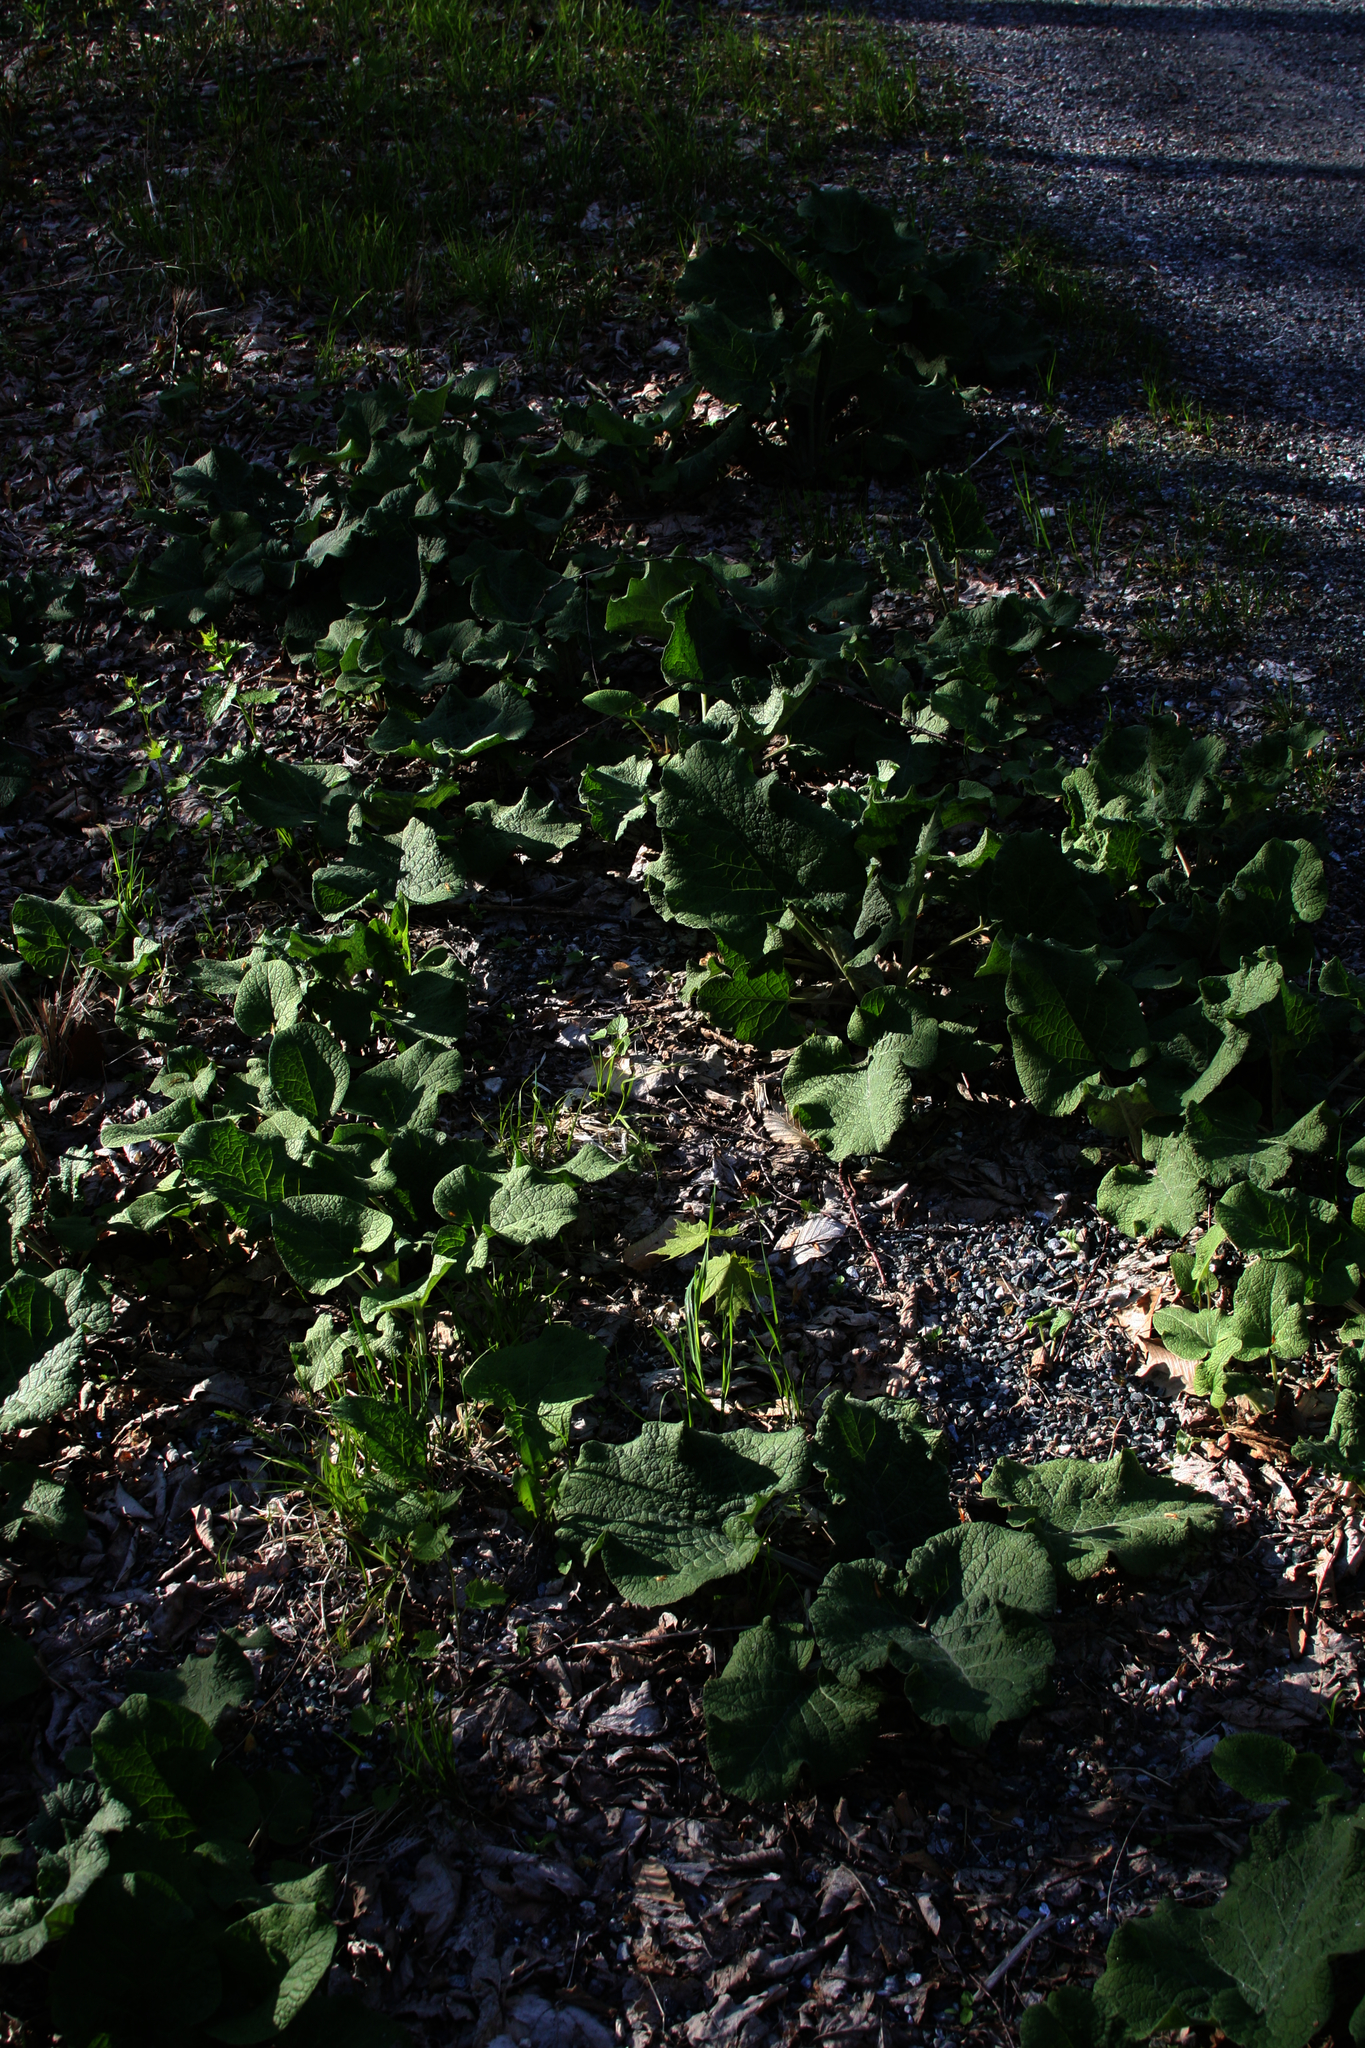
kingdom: Plantae
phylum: Tracheophyta
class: Magnoliopsida
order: Asterales
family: Asteraceae
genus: Arctium
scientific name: Arctium
